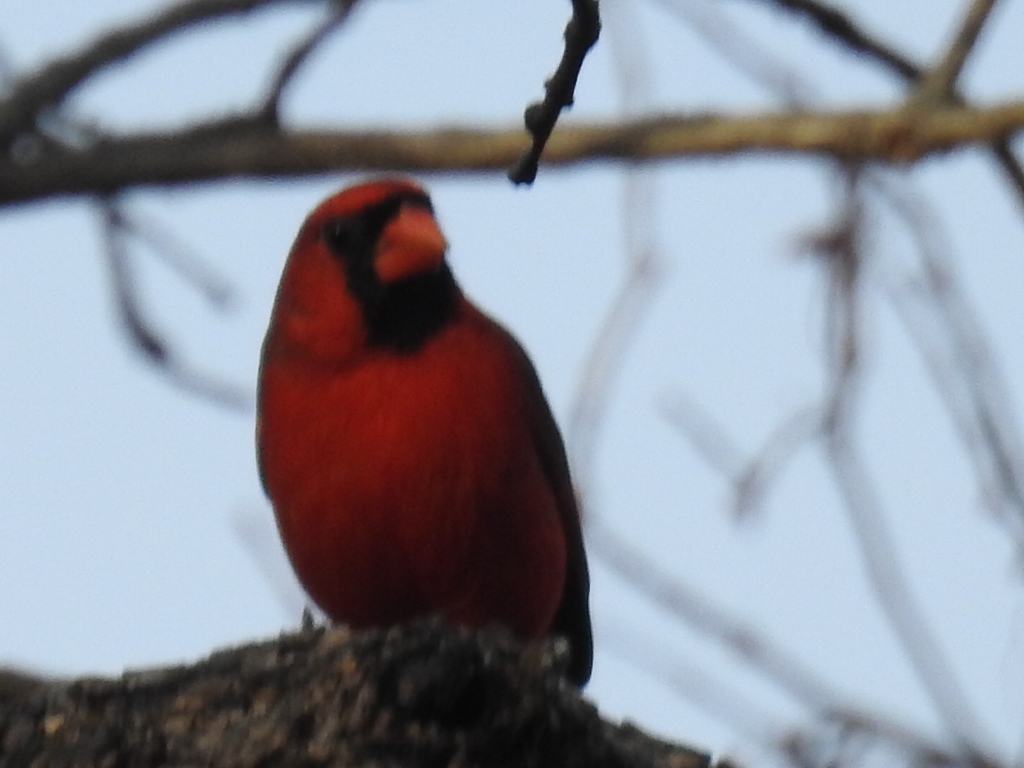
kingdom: Animalia
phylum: Chordata
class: Aves
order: Passeriformes
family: Cardinalidae
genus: Cardinalis
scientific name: Cardinalis cardinalis
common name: Northern cardinal
